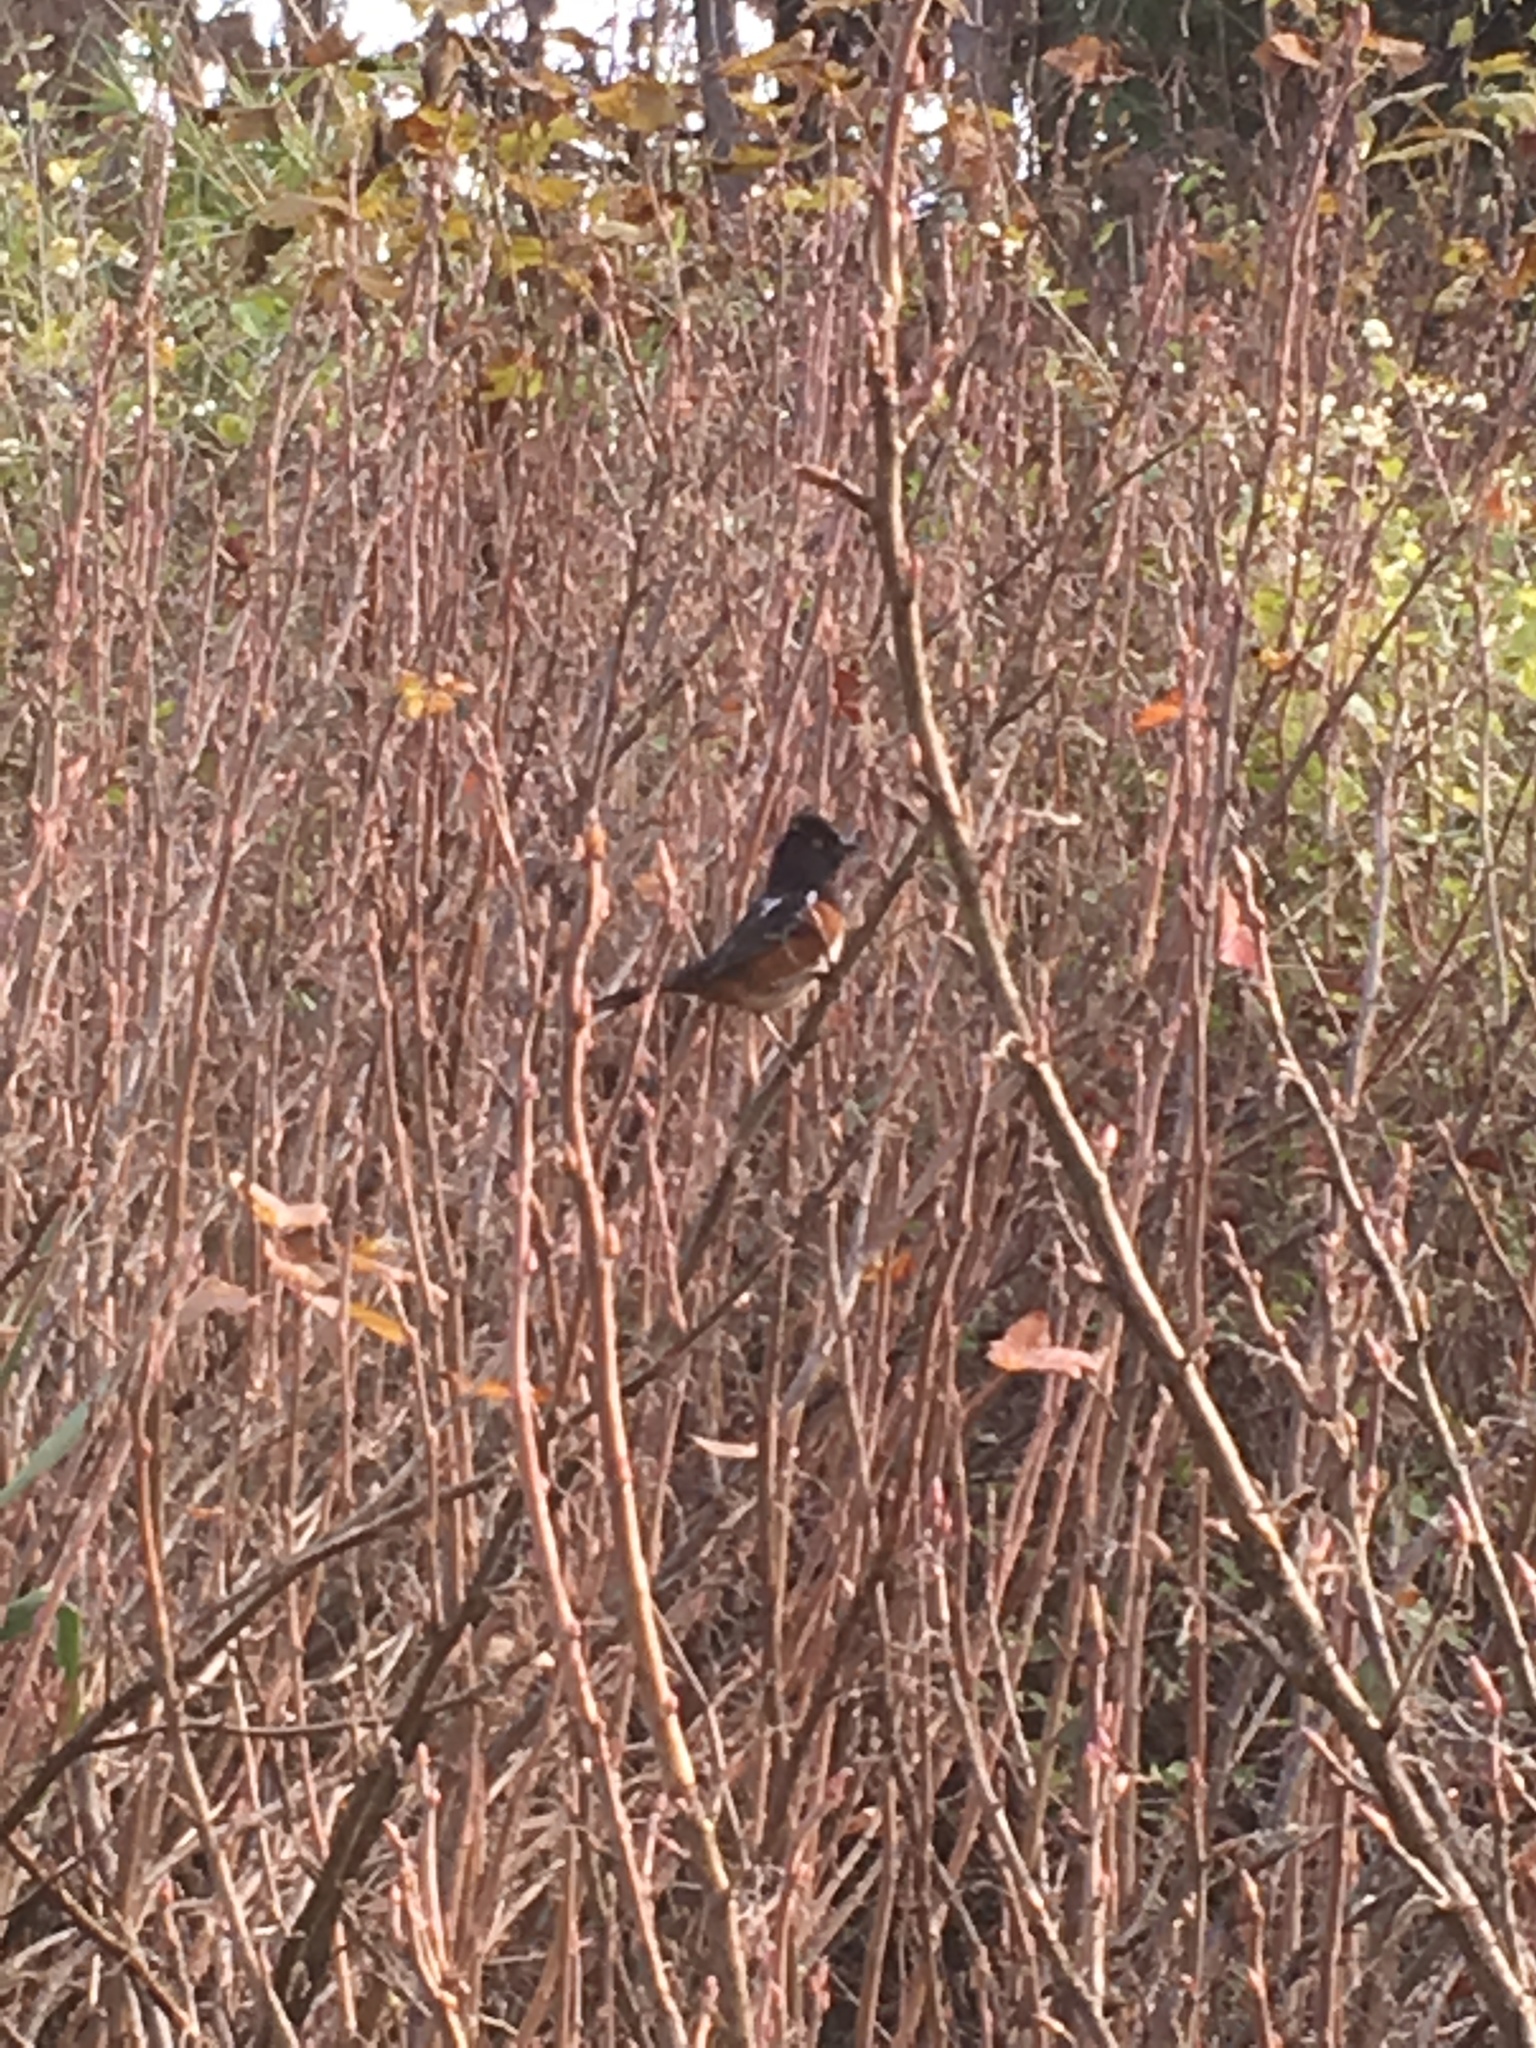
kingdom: Animalia
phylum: Chordata
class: Aves
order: Passeriformes
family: Passerellidae
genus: Pipilo
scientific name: Pipilo maculatus
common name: Spotted towhee
